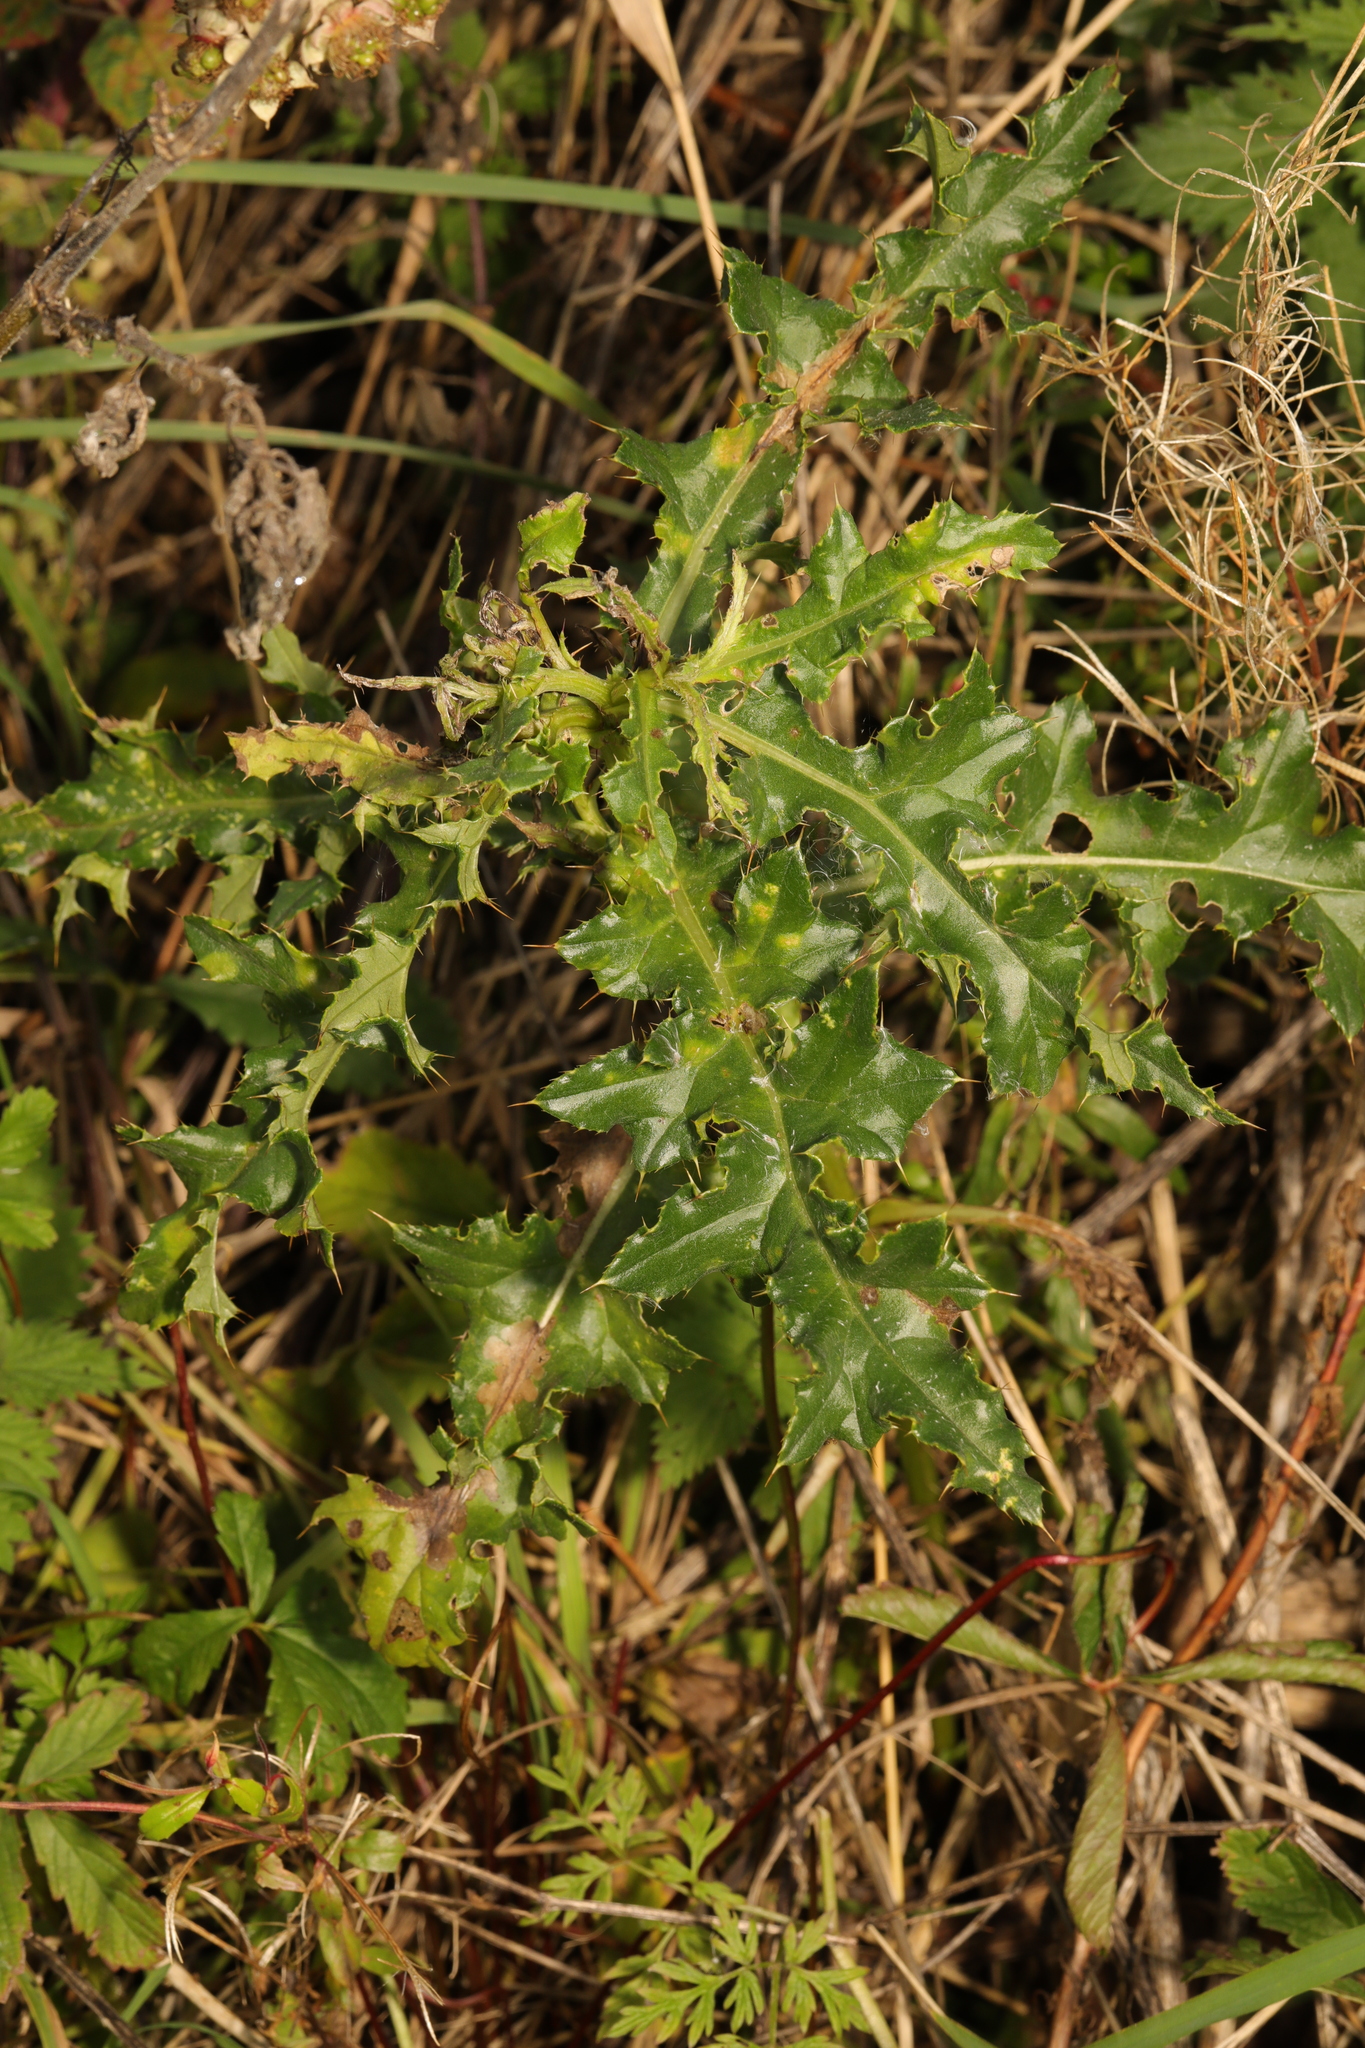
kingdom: Plantae
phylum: Tracheophyta
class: Magnoliopsida
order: Asterales
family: Asteraceae
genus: Cirsium
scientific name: Cirsium arvense
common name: Creeping thistle
